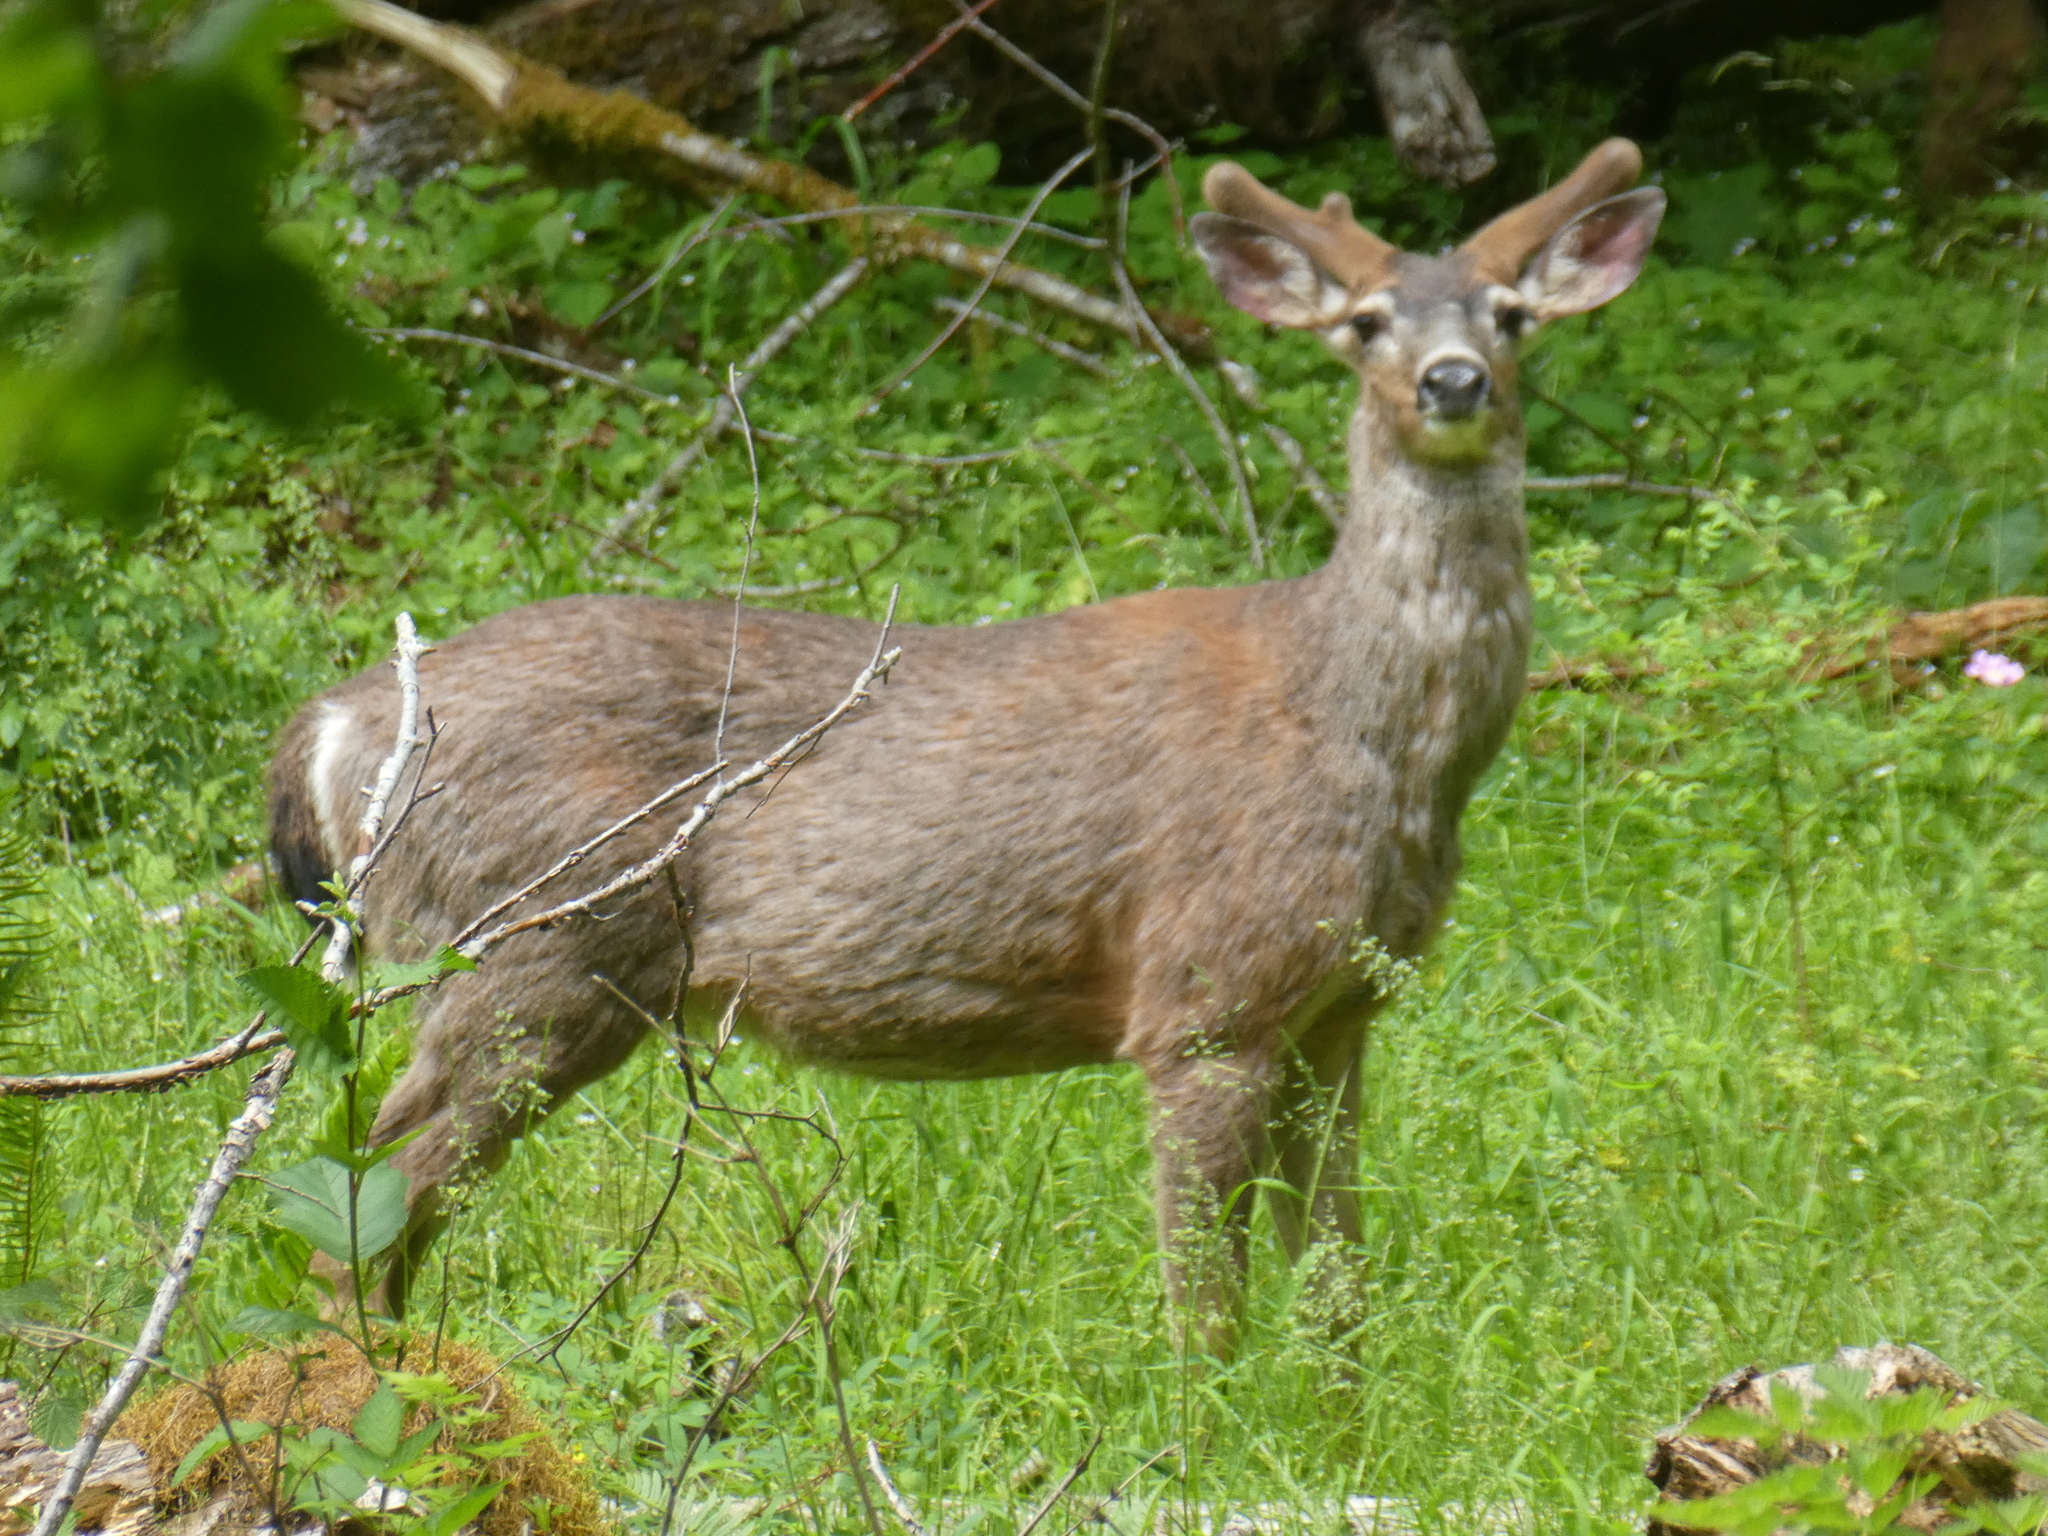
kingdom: Animalia
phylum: Chordata
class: Mammalia
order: Artiodactyla
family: Cervidae
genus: Odocoileus
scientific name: Odocoileus hemionus
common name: Mule deer
